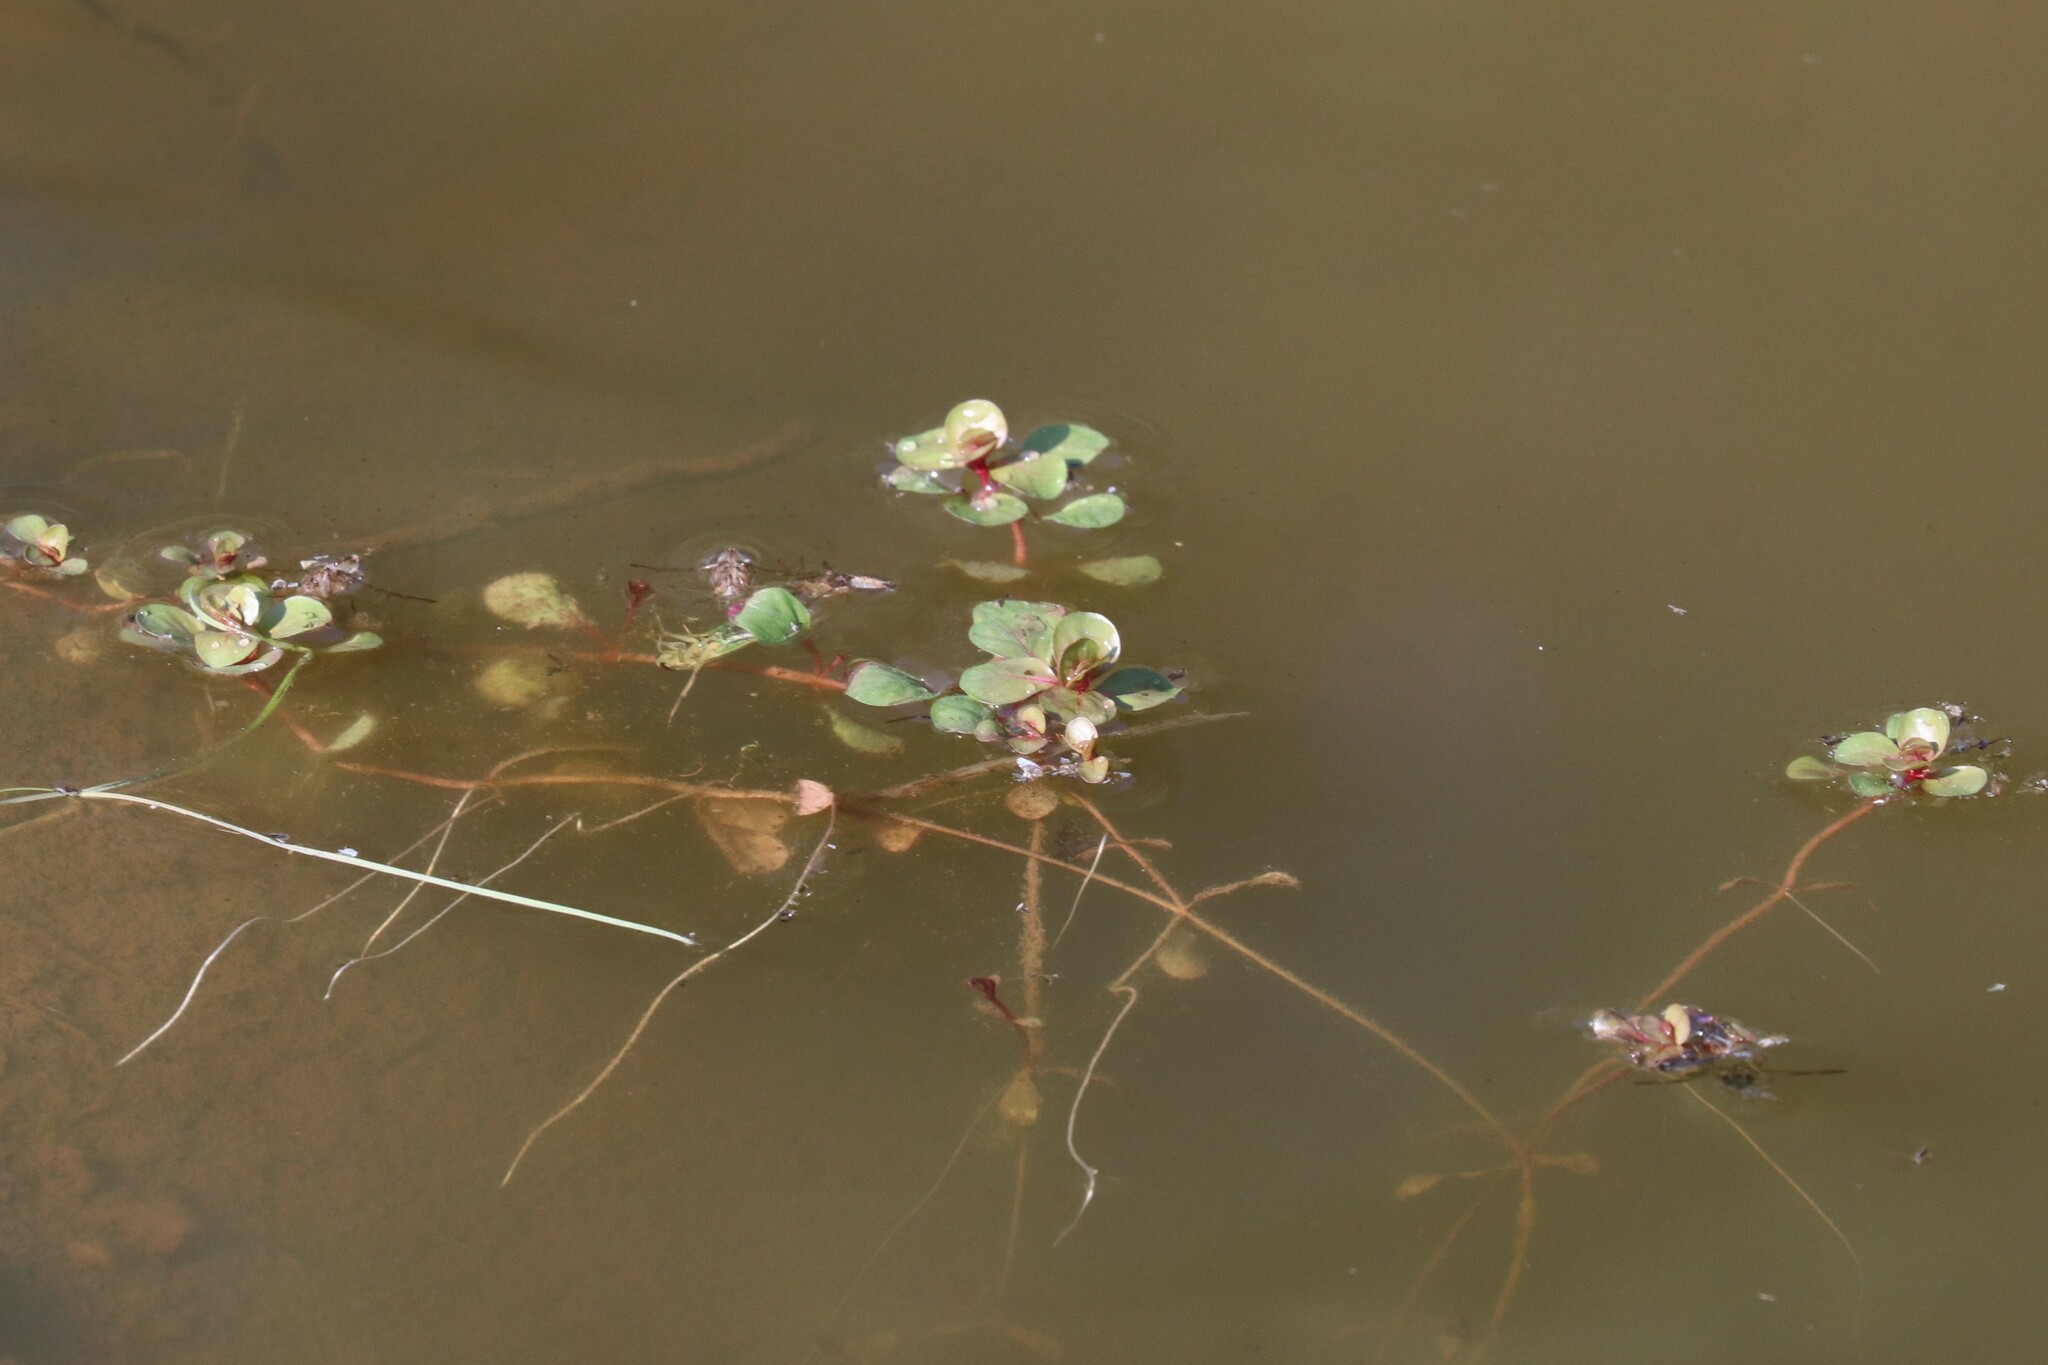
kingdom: Plantae
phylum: Tracheophyta
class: Magnoliopsida
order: Myrtales
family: Lythraceae
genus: Lythrum
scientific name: Lythrum portula
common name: Water purslane
